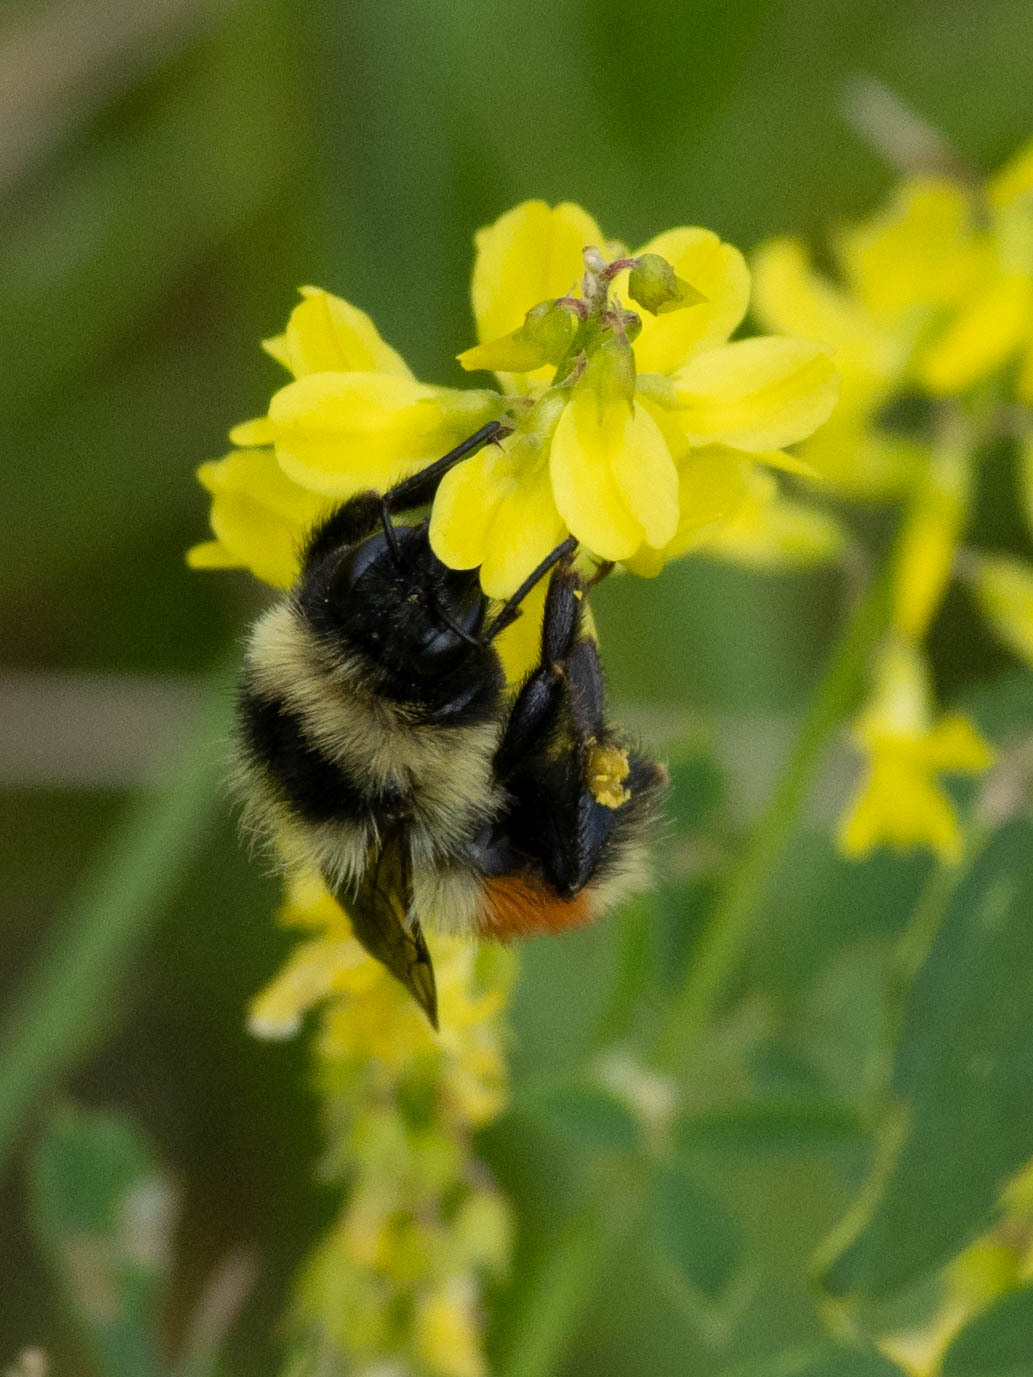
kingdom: Animalia
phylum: Arthropoda
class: Insecta
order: Hymenoptera
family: Apidae
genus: Bombus
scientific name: Bombus rufocinctus
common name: Red-belted bumble bee
